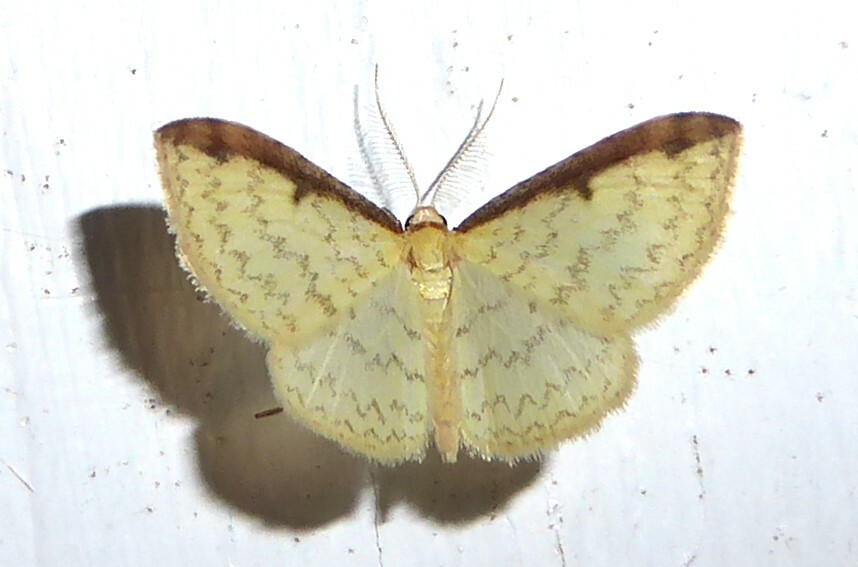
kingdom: Animalia
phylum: Arthropoda
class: Insecta
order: Lepidoptera
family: Geometridae
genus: Epiphryne
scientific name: Epiphryne undosata
